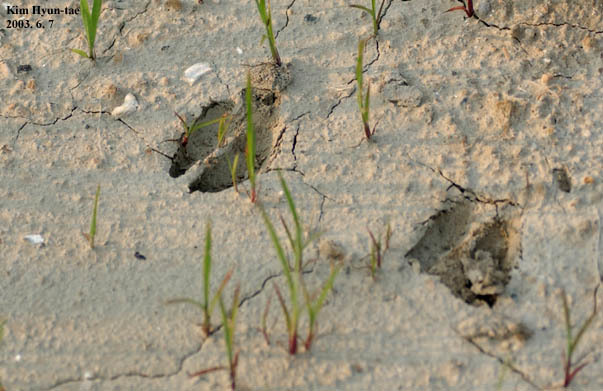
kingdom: Animalia
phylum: Chordata
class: Mammalia
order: Artiodactyla
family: Cervidae
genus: Hydropotes
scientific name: Hydropotes inermis
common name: Chinese water deer
